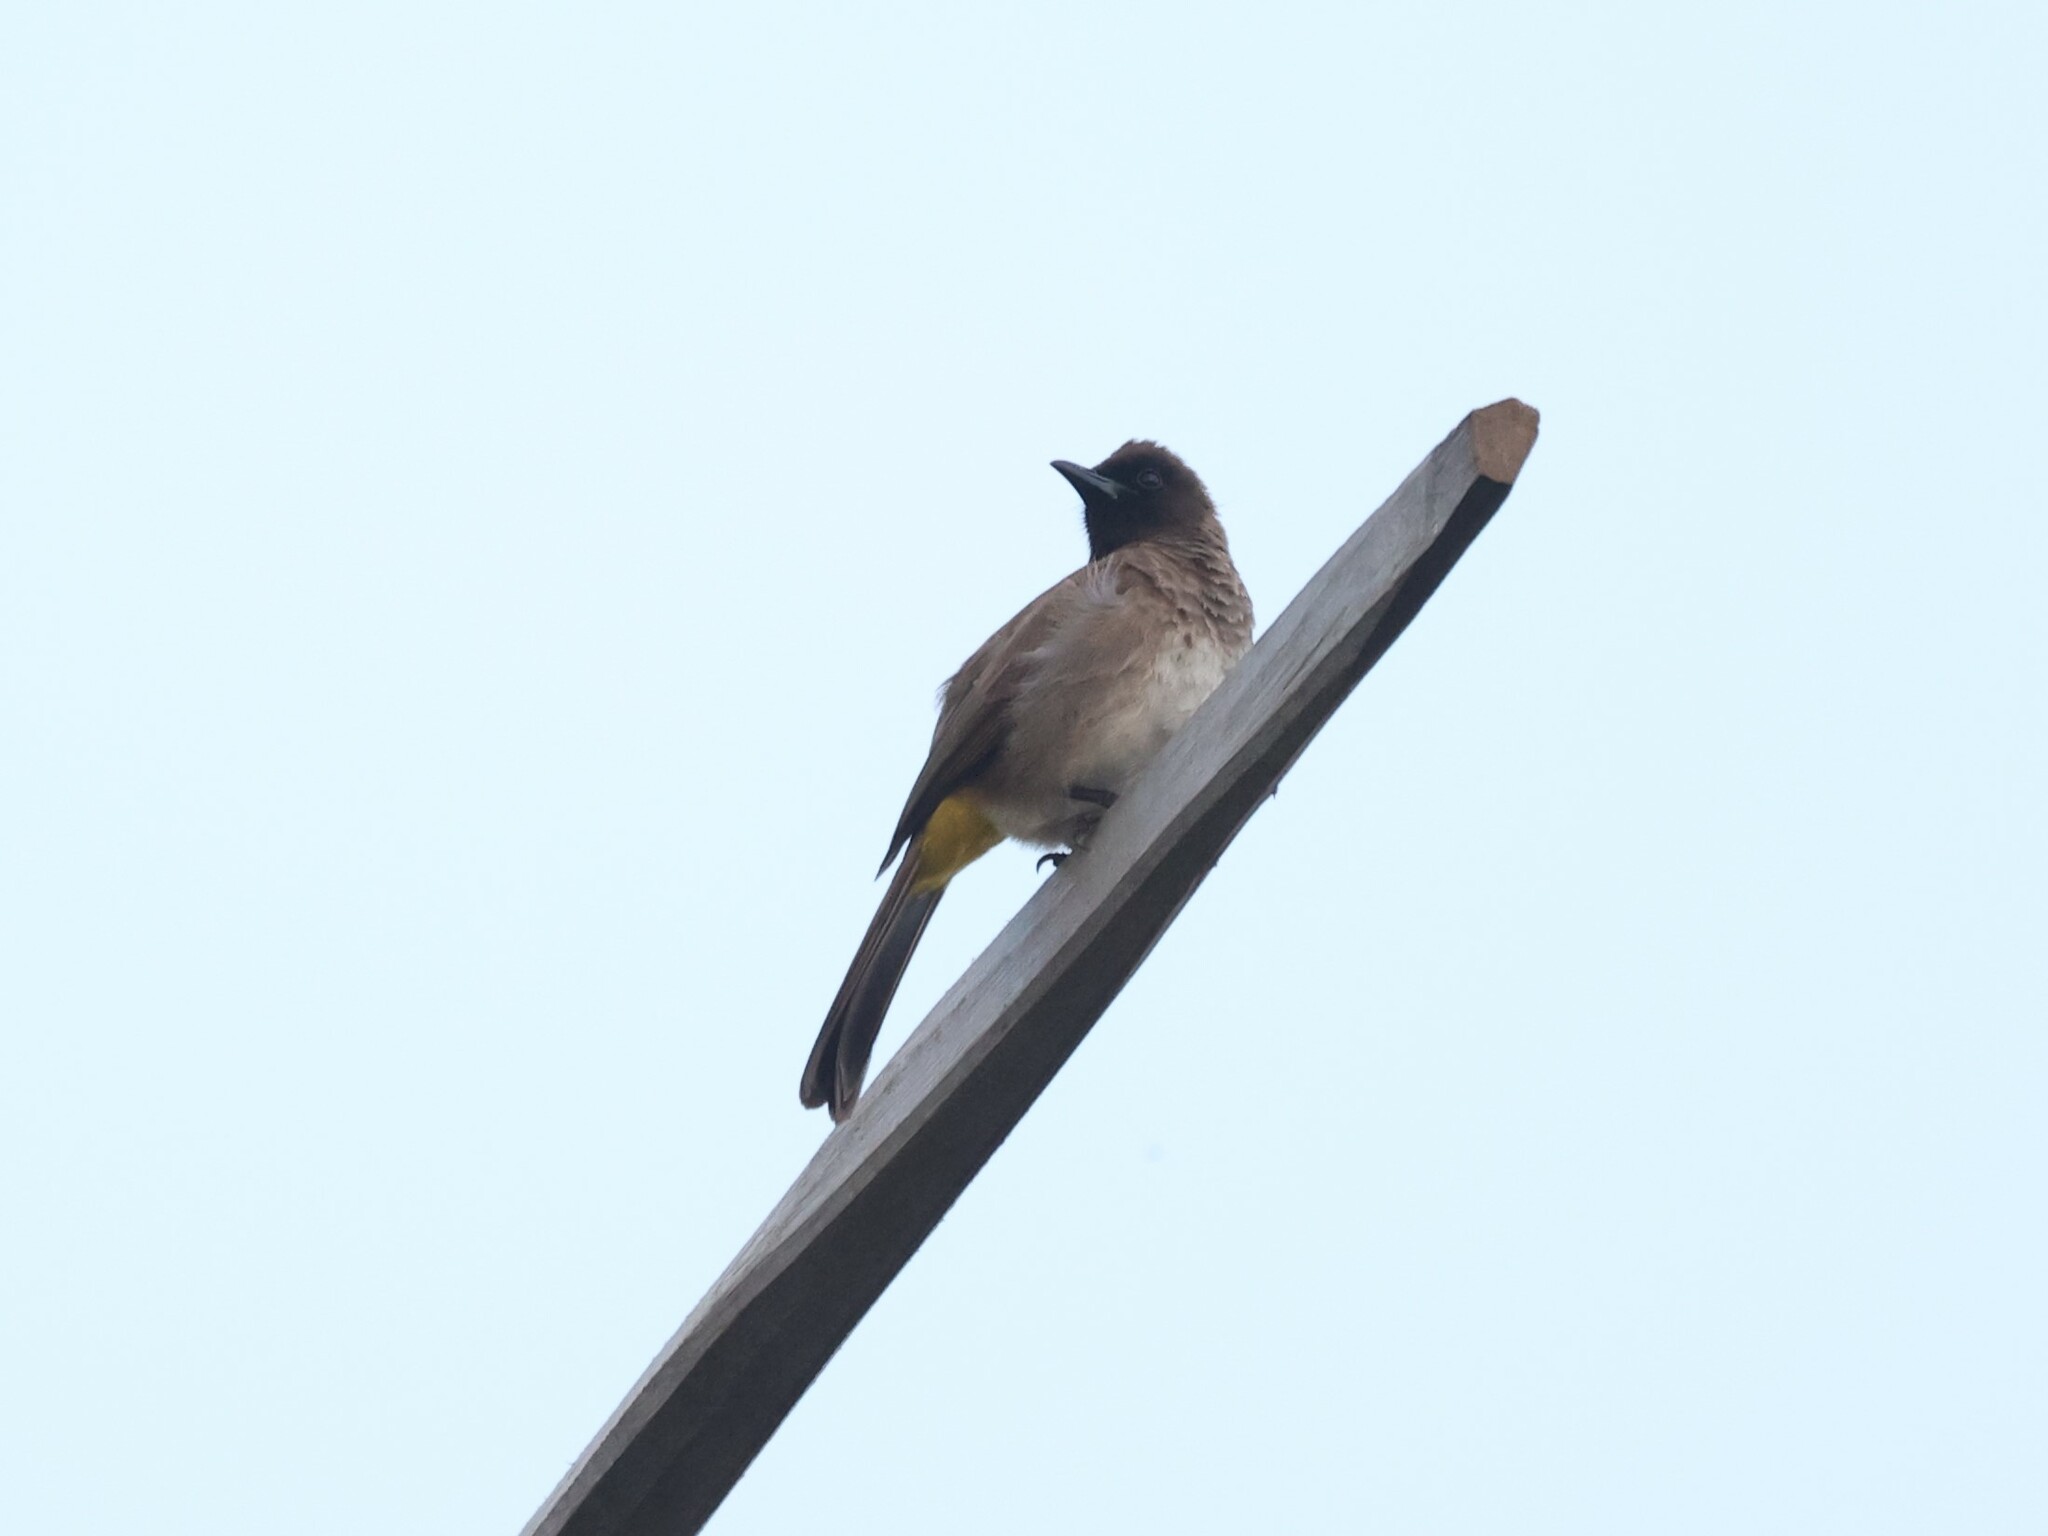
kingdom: Animalia
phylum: Chordata
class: Aves
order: Passeriformes
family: Pycnonotidae
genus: Pycnonotus
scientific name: Pycnonotus barbatus
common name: Common bulbul
